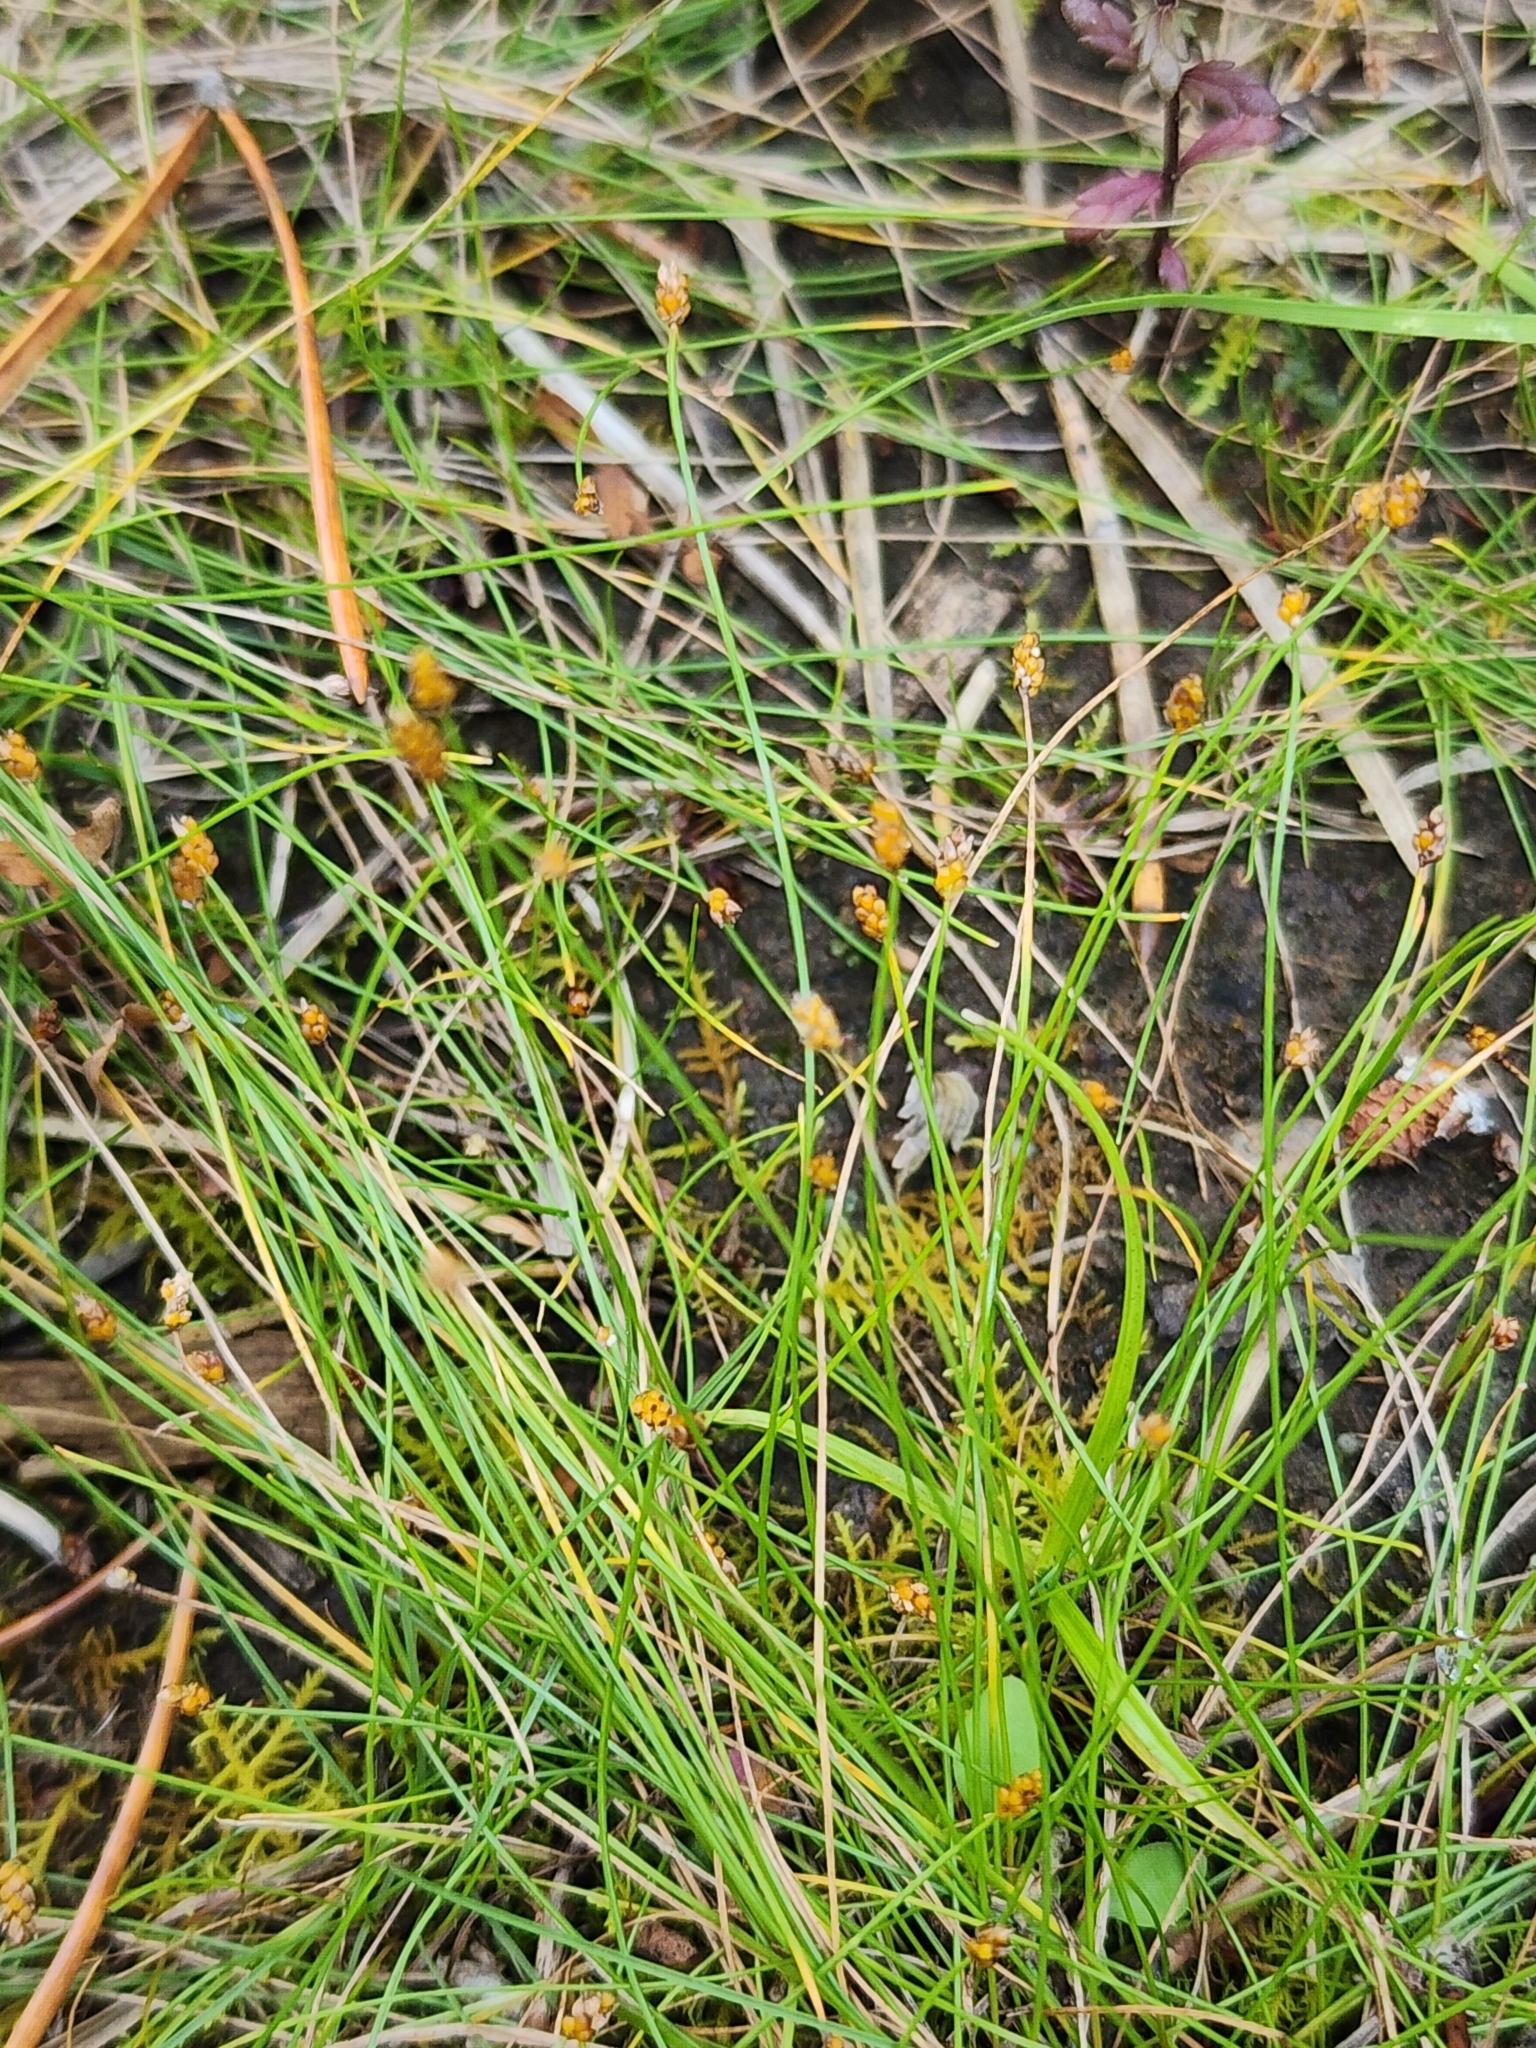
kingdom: Plantae
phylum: Tracheophyta
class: Liliopsida
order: Poales
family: Cyperaceae
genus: Eleocharis
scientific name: Eleocharis nitida
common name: Neat spikerush
